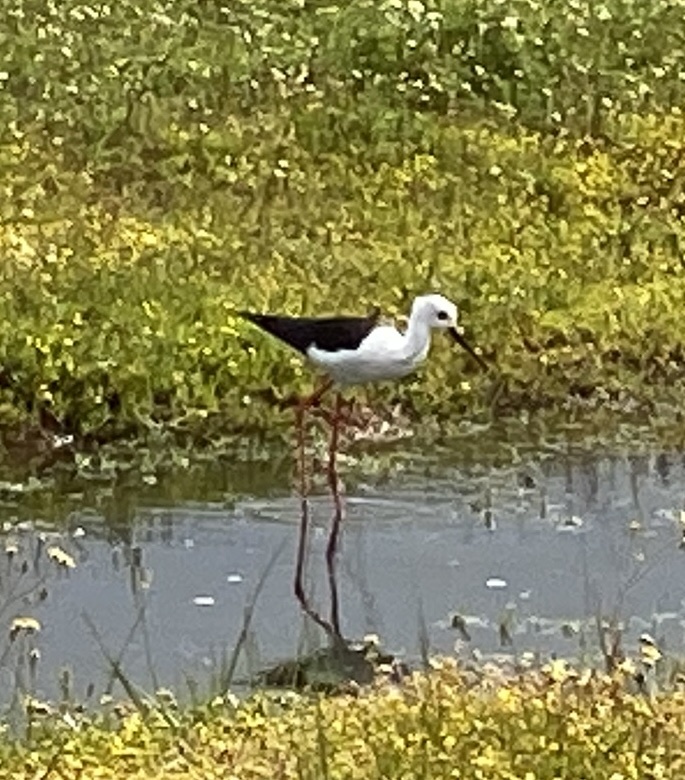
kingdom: Animalia
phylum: Chordata
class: Aves
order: Charadriiformes
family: Recurvirostridae
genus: Himantopus
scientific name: Himantopus himantopus
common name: Black-winged stilt
